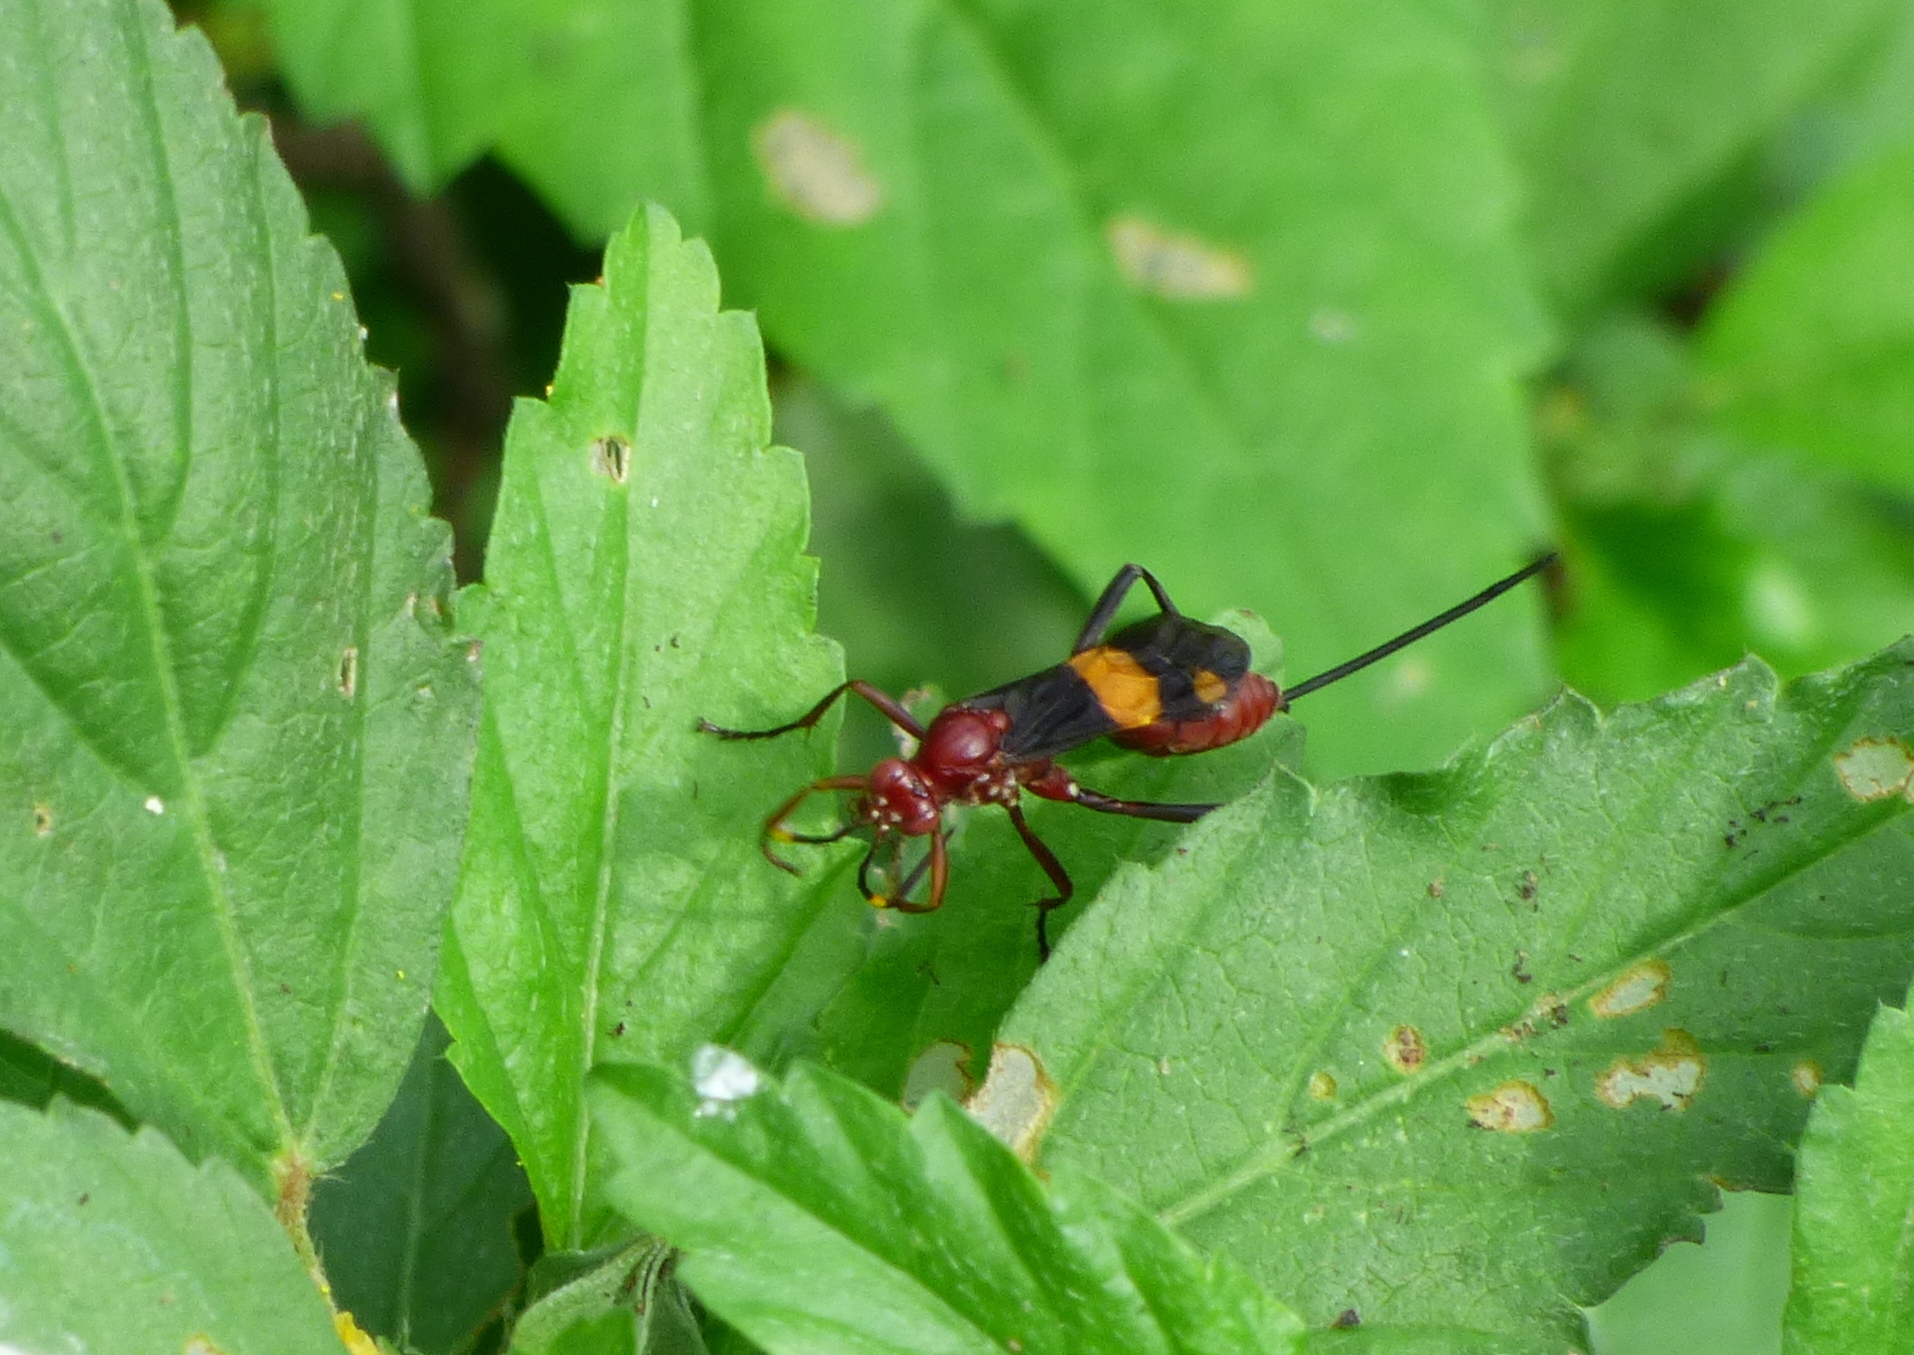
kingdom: Animalia
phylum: Arthropoda
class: Insecta
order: Hymenoptera
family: Ichneumonidae
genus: Compsocryptus
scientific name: Compsocryptus melanostigma
